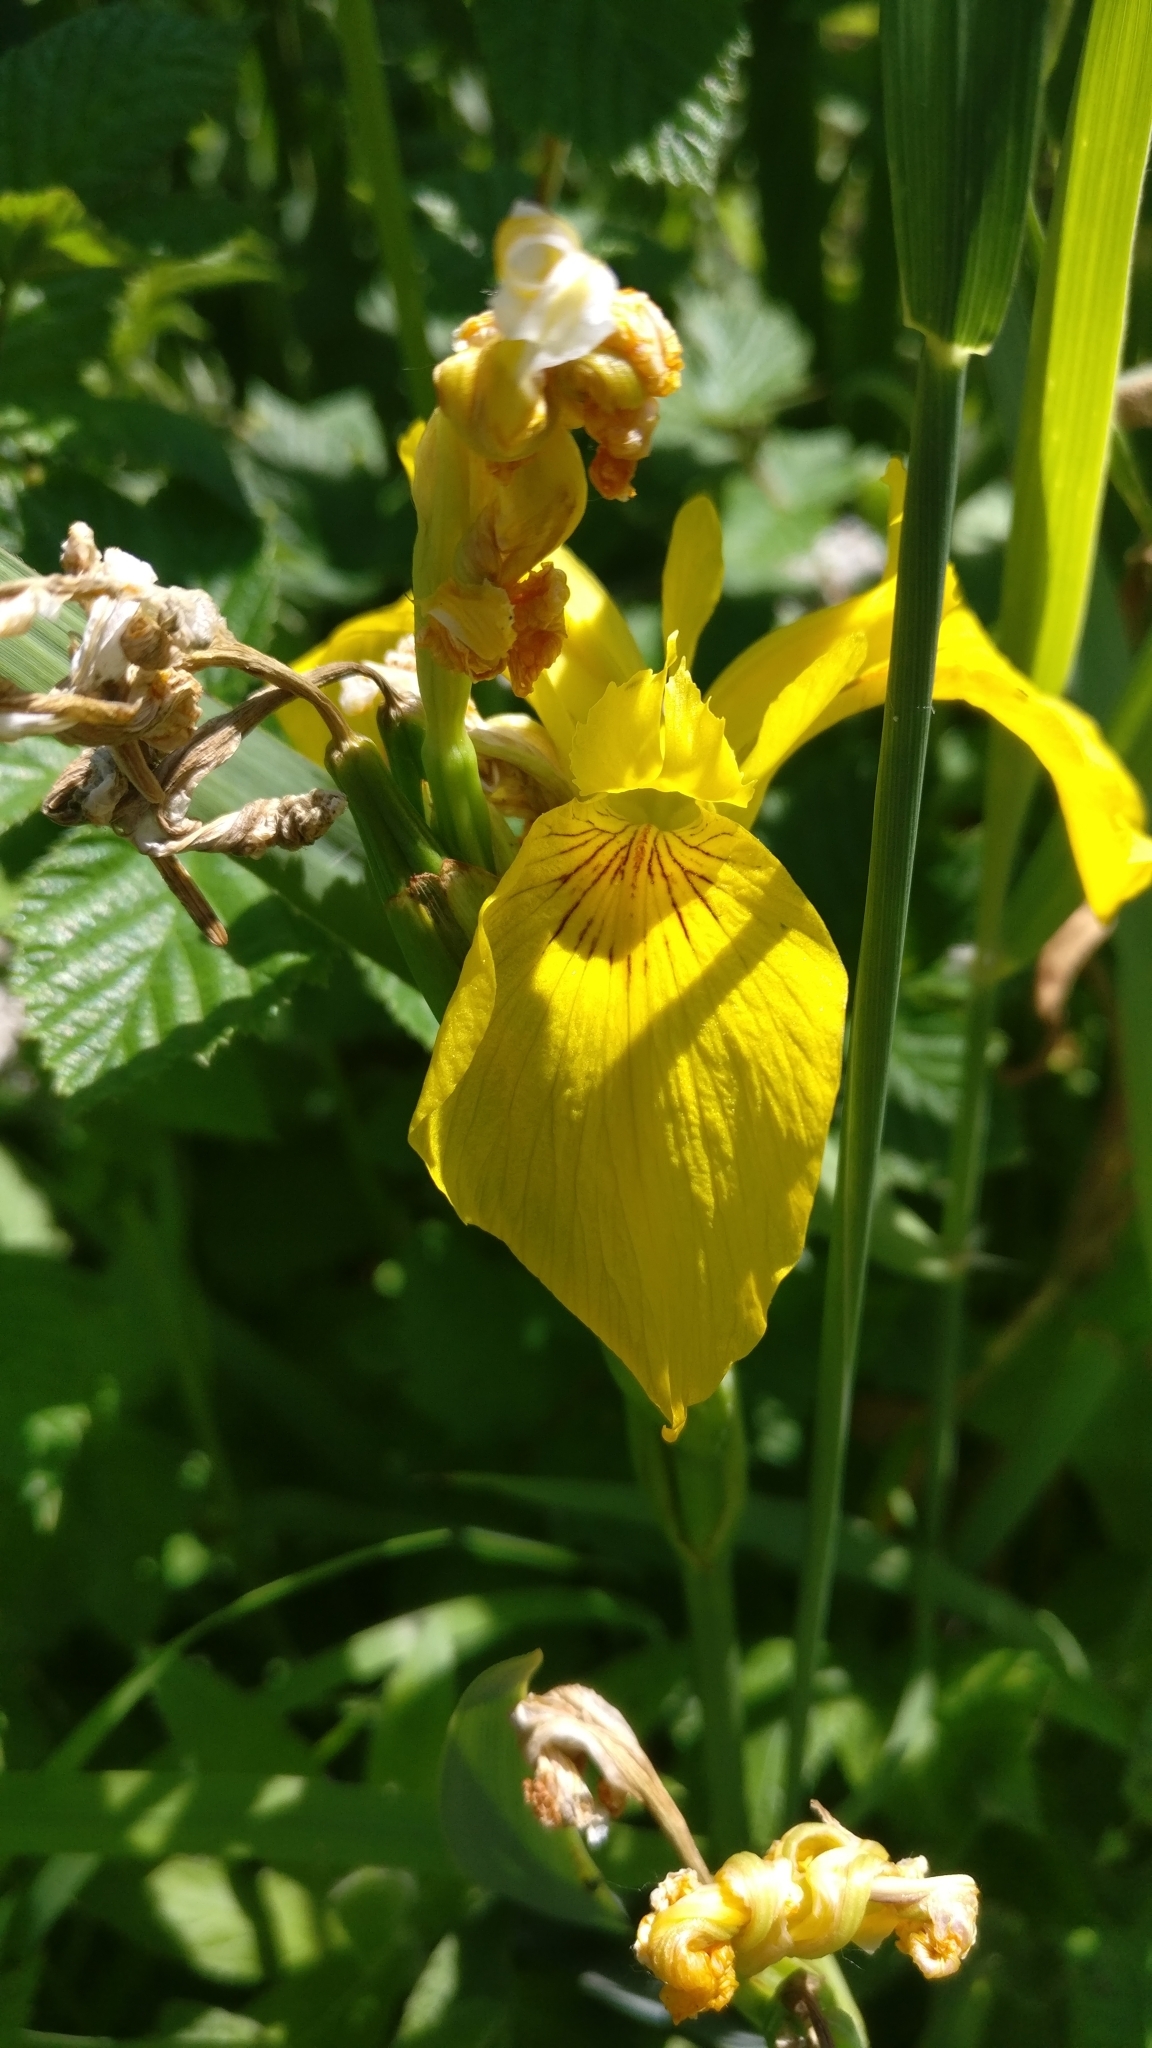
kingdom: Plantae
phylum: Tracheophyta
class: Liliopsida
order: Asparagales
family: Iridaceae
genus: Iris
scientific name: Iris pseudacorus
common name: Yellow flag
